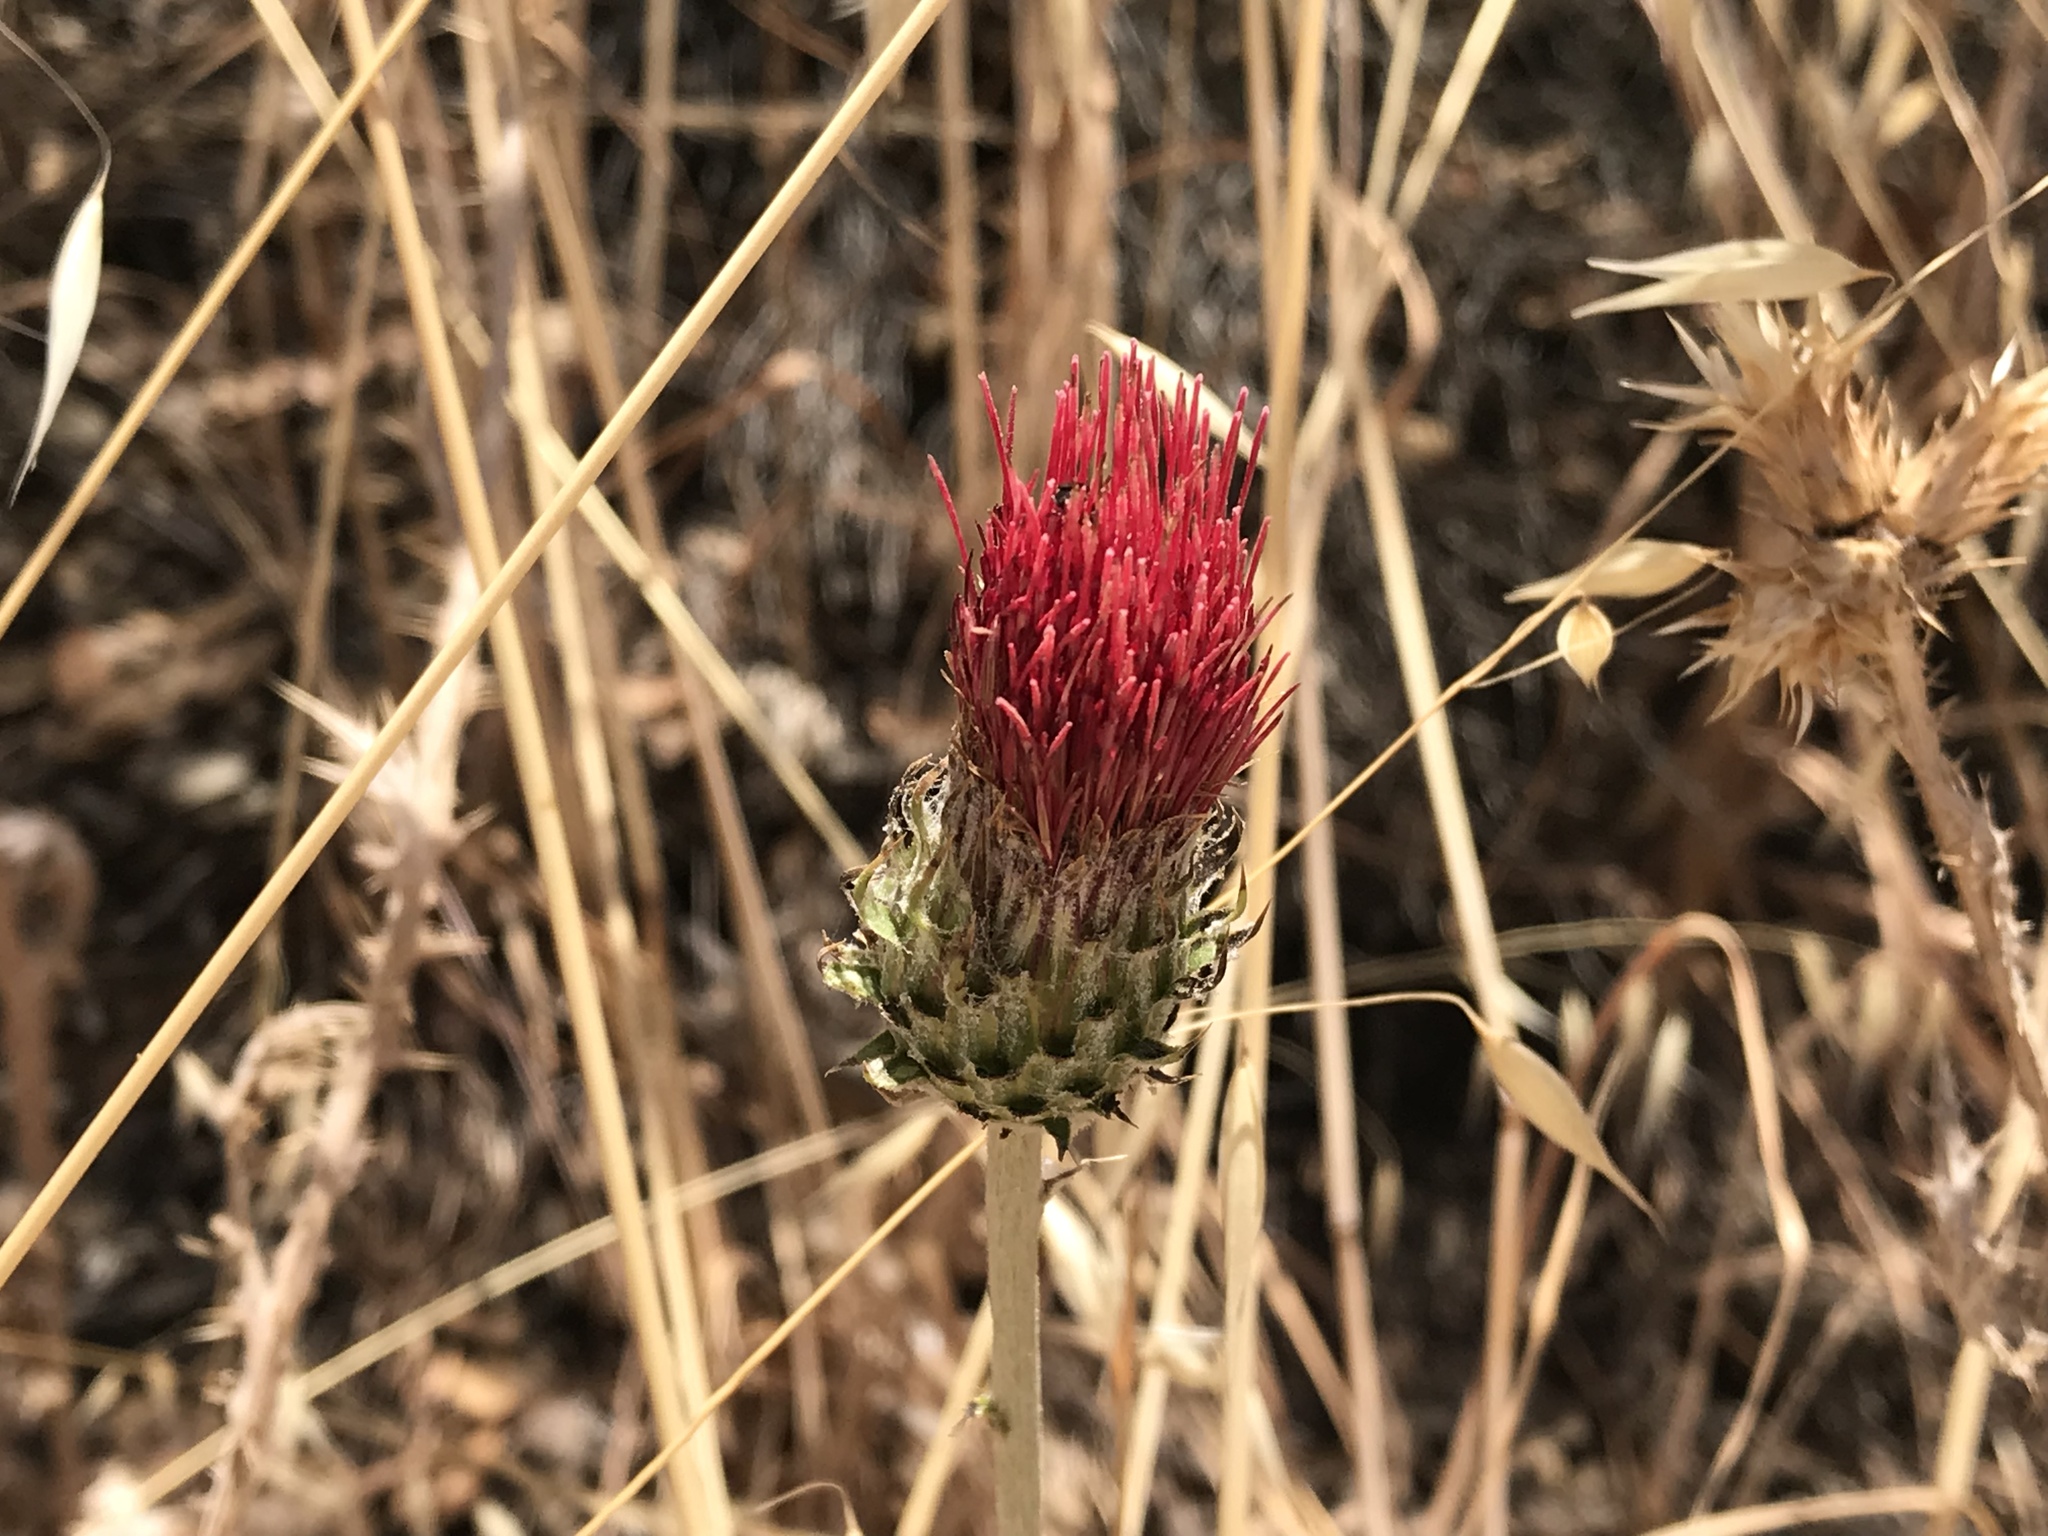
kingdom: Plantae
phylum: Tracheophyta
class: Magnoliopsida
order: Asterales
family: Asteraceae
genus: Cirsium
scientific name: Cirsium occidentale
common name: Western thistle
